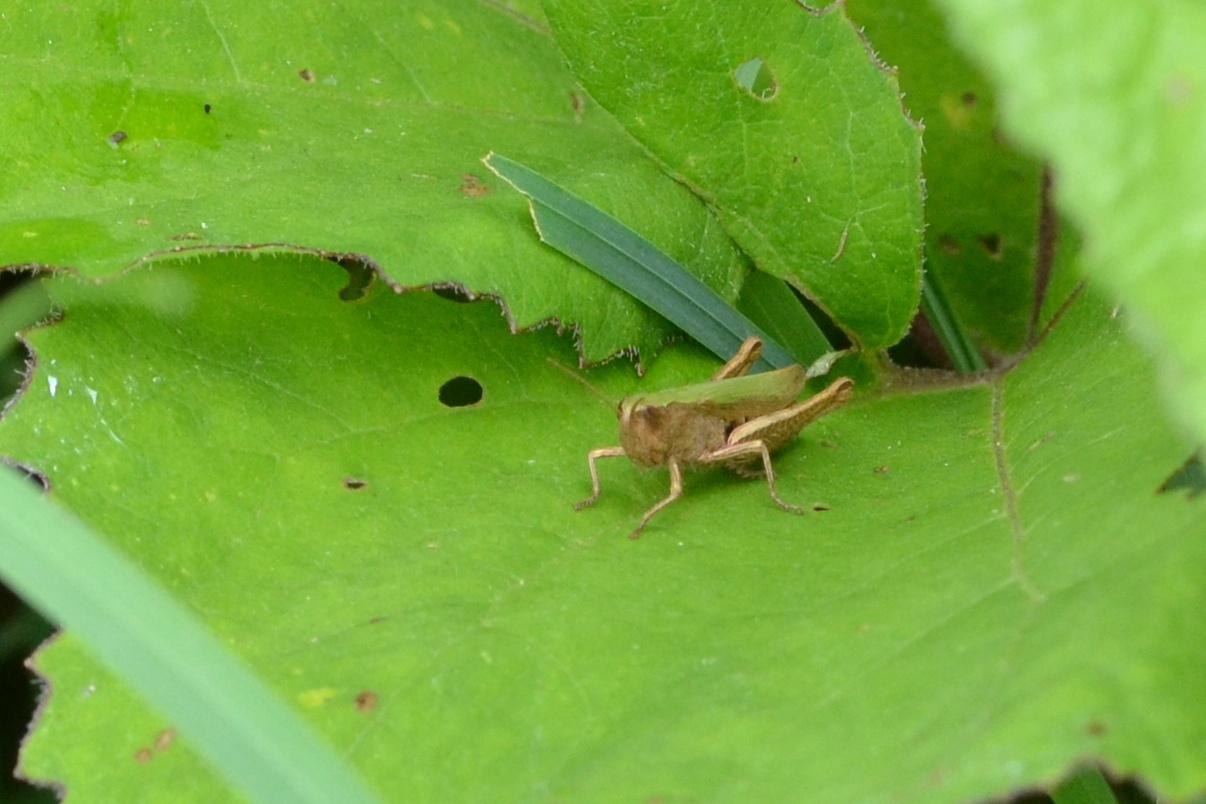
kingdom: Animalia
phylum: Arthropoda
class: Insecta
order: Orthoptera
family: Acrididae
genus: Chorthippus
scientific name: Chorthippus dorsatus
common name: Steppe grasshopper
